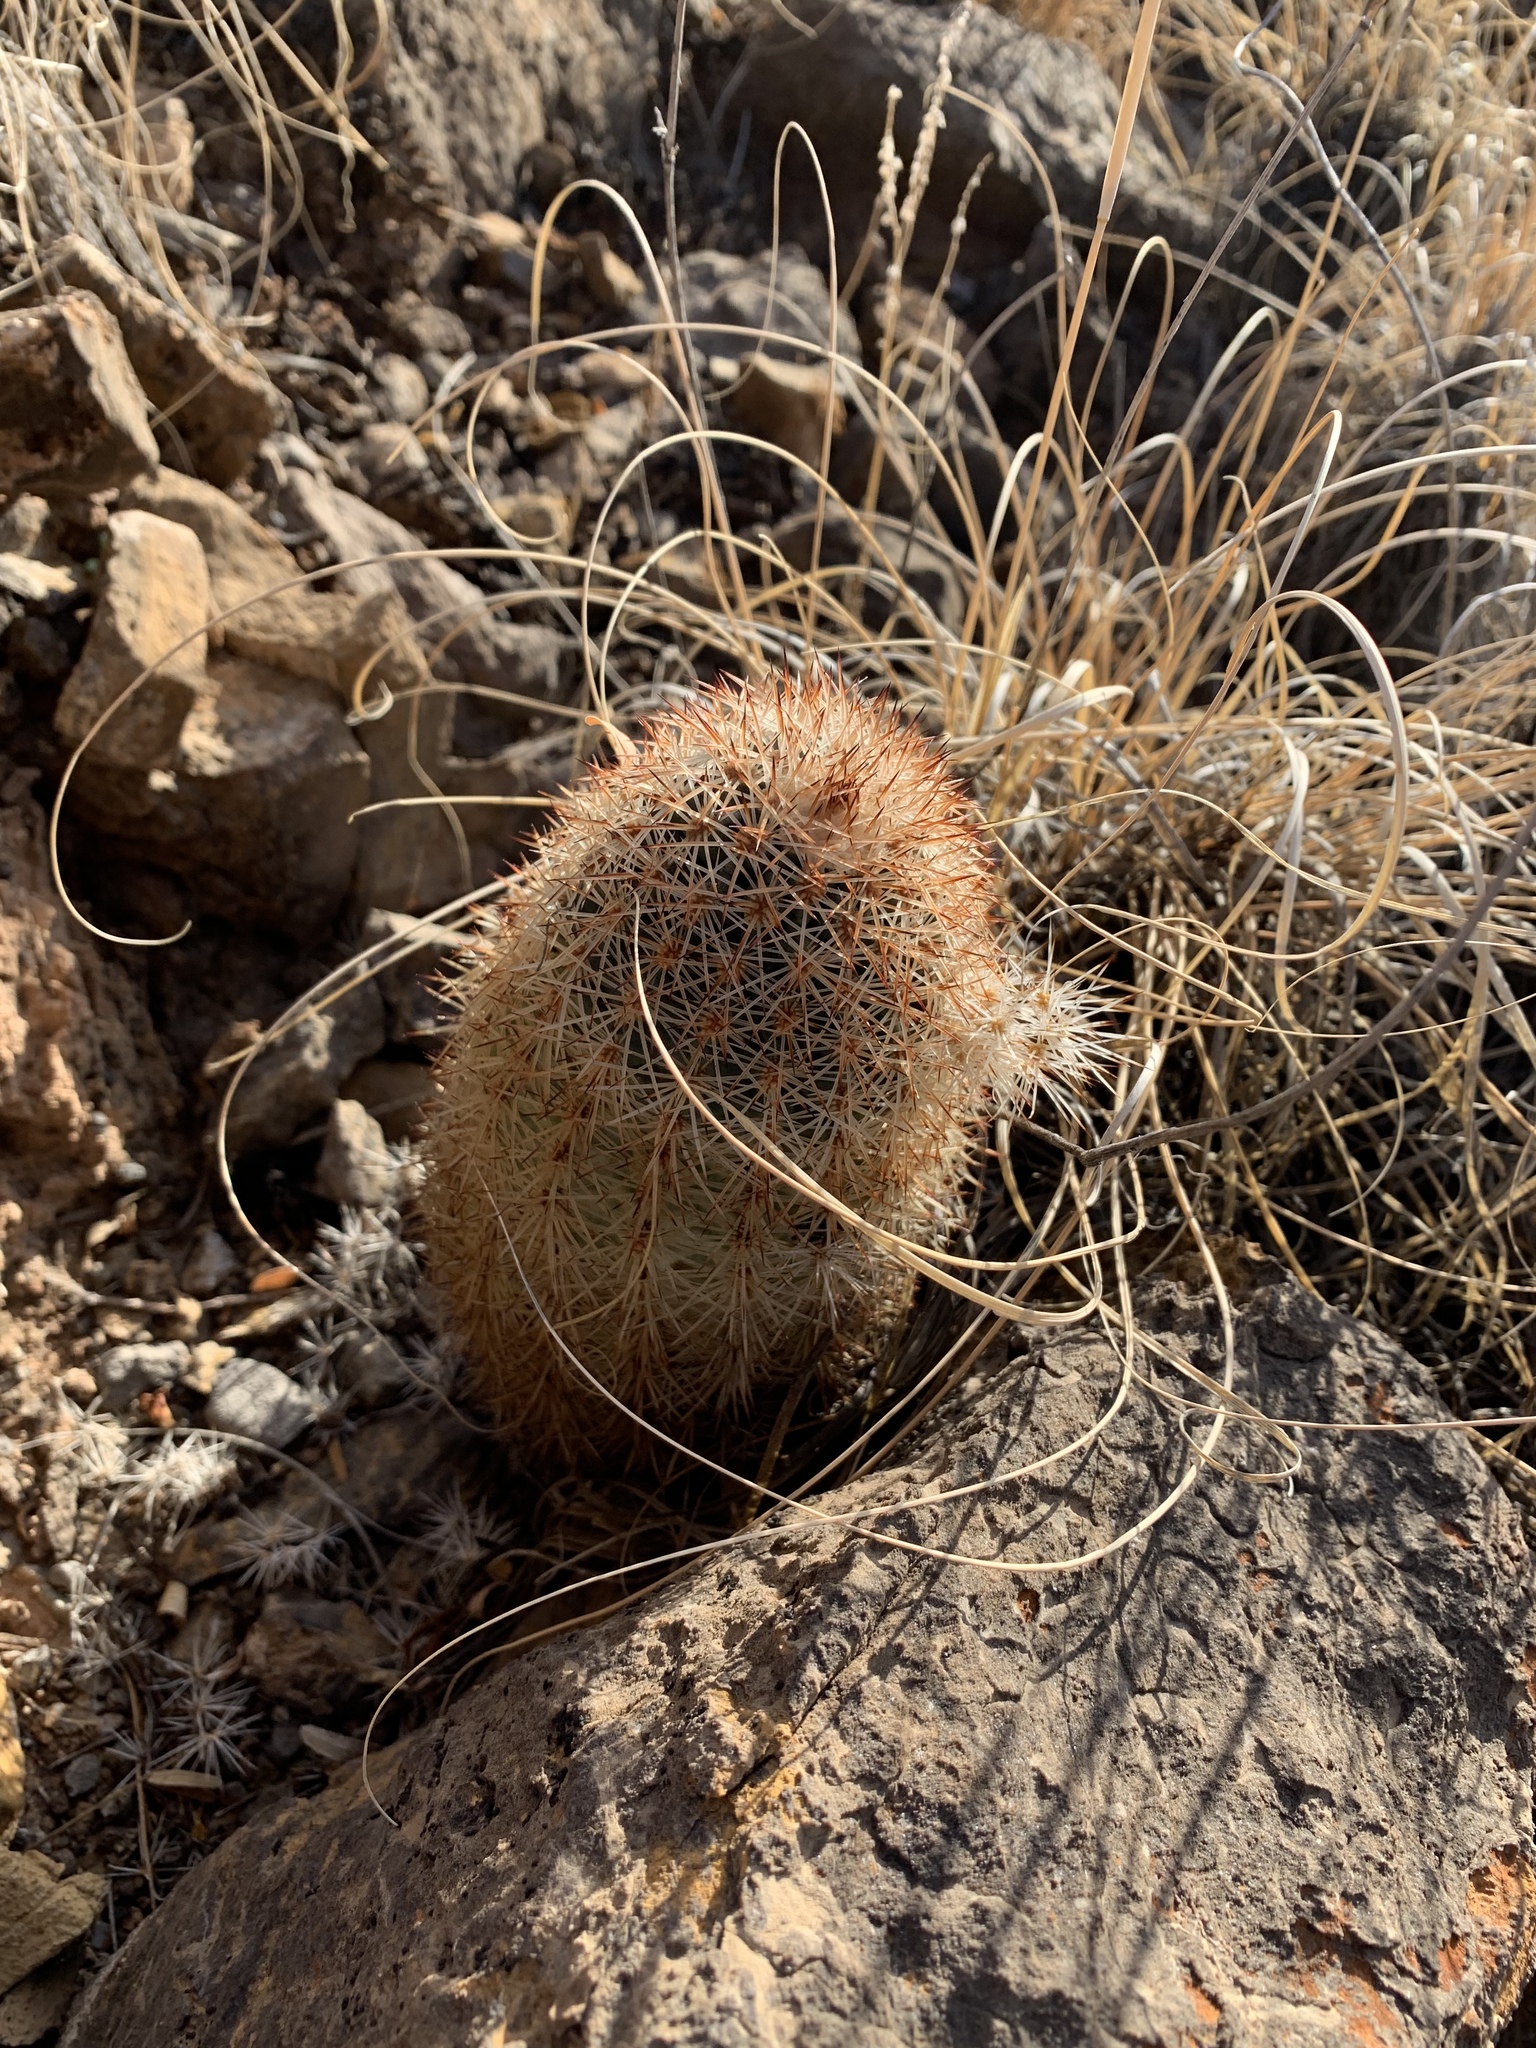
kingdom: Plantae
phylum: Tracheophyta
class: Magnoliopsida
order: Caryophyllales
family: Cactaceae
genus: Echinocereus
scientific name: Echinocereus dasyacanthus
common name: Spiny hedgehog cactus
